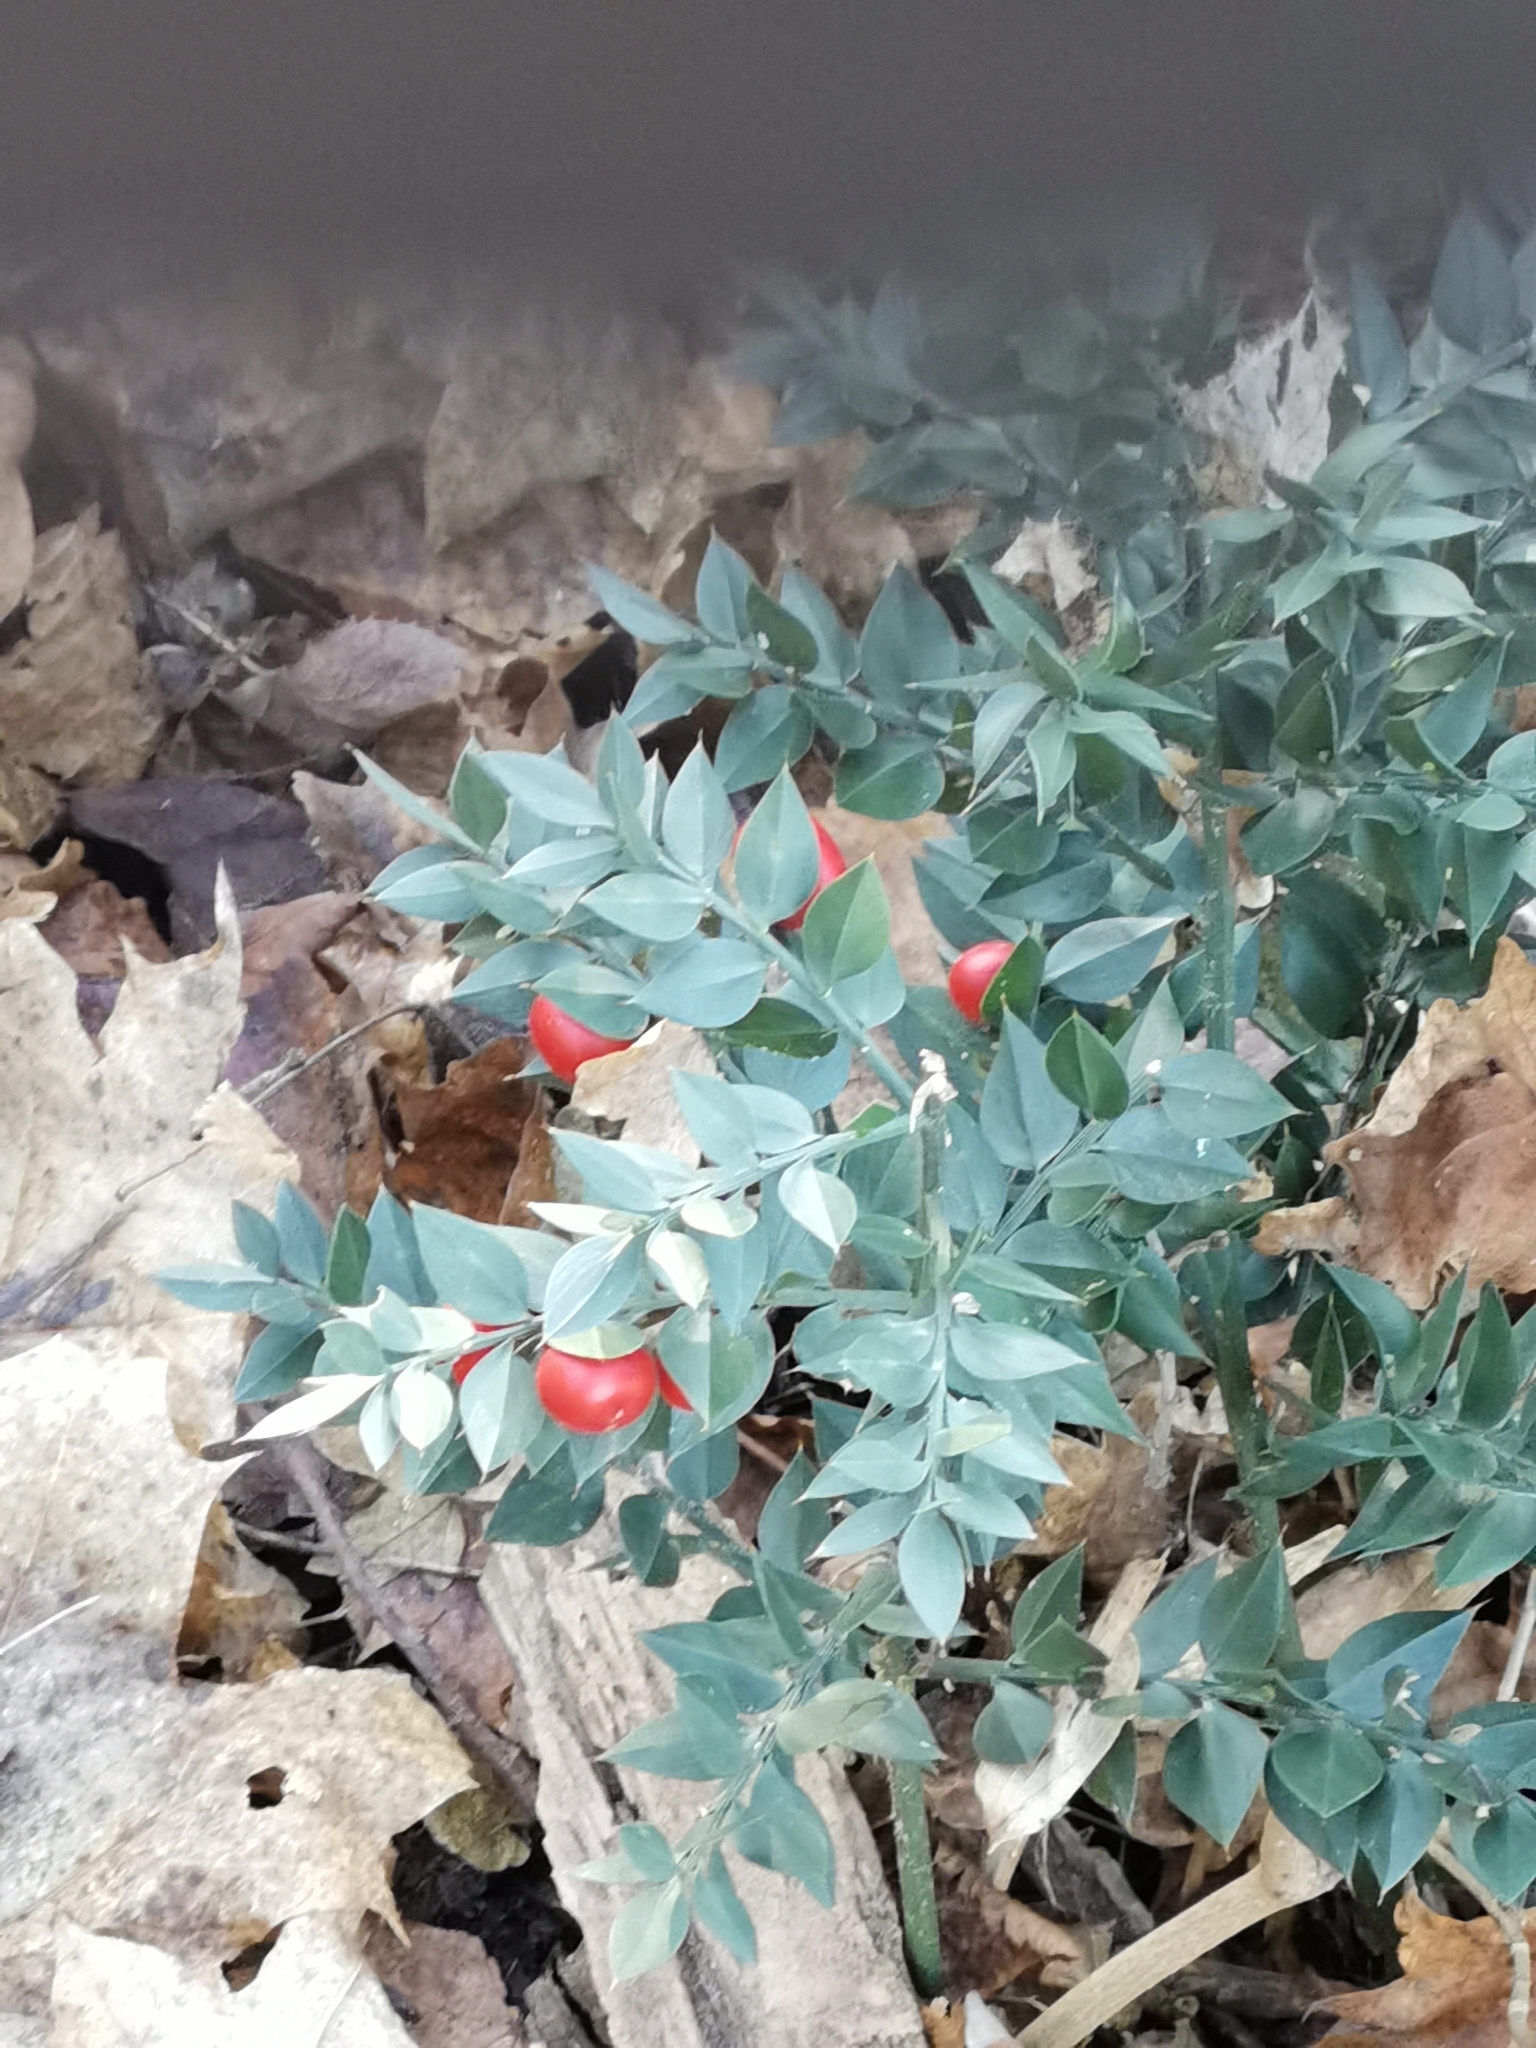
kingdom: Plantae
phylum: Tracheophyta
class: Liliopsida
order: Asparagales
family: Asparagaceae
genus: Ruscus
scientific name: Ruscus aculeatus
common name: Butcher's-broom
